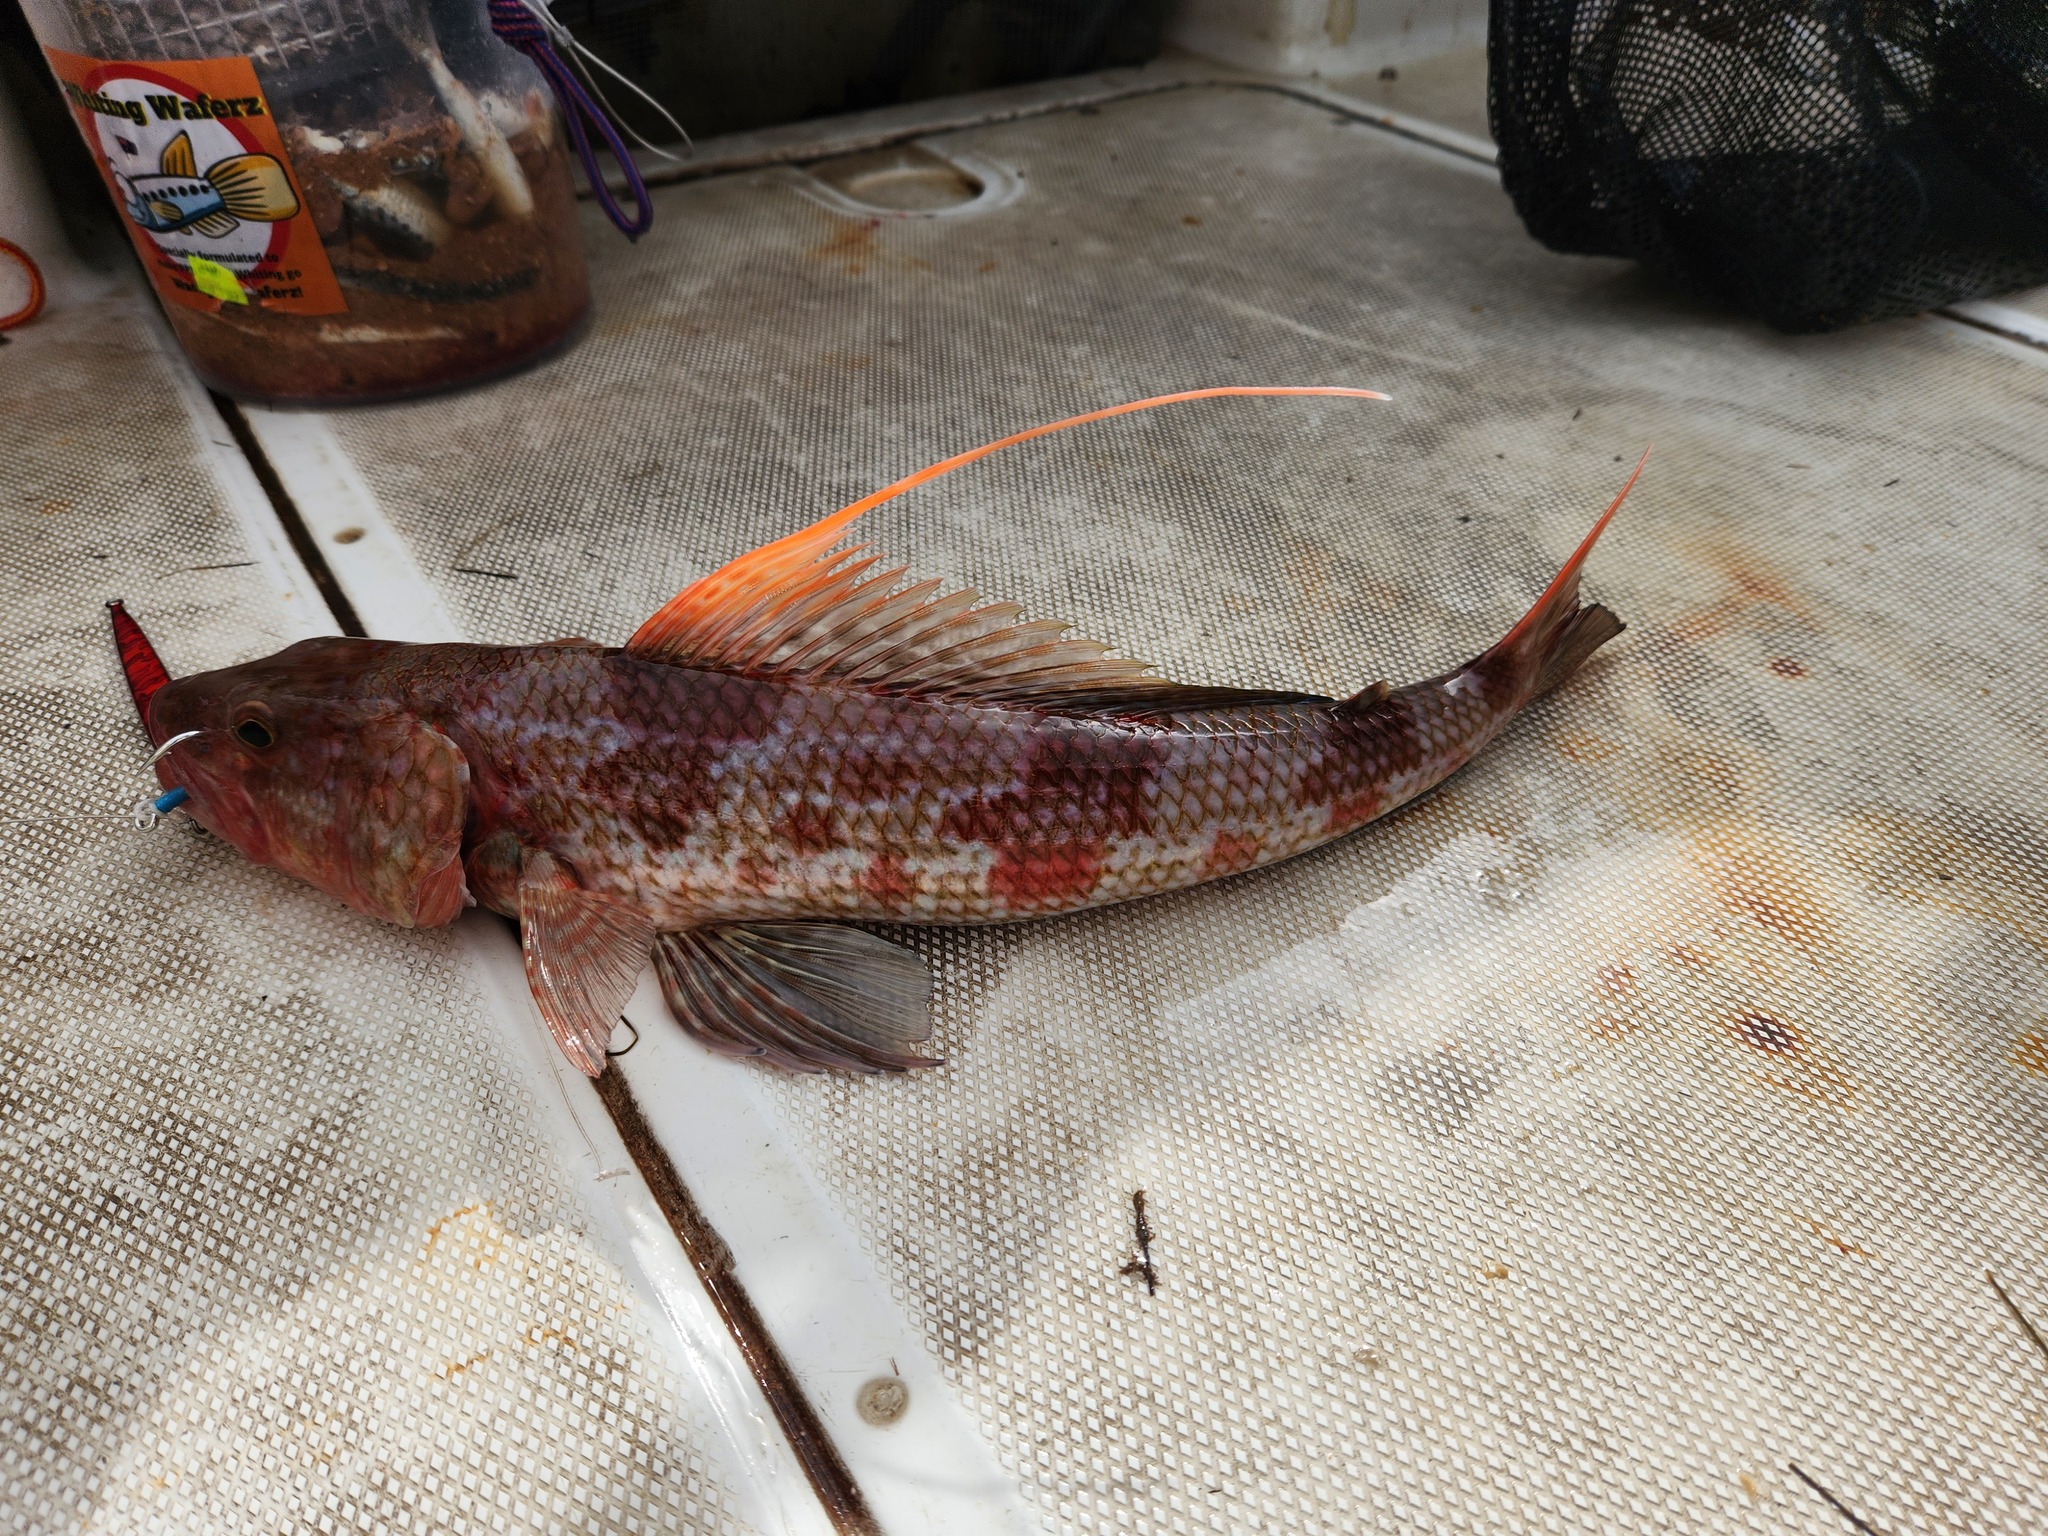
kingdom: Animalia
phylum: Chordata
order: Aulopiformes
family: Aulopidae
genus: Latropiscis
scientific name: Latropiscis purpurissatus
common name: Sergeant baker
